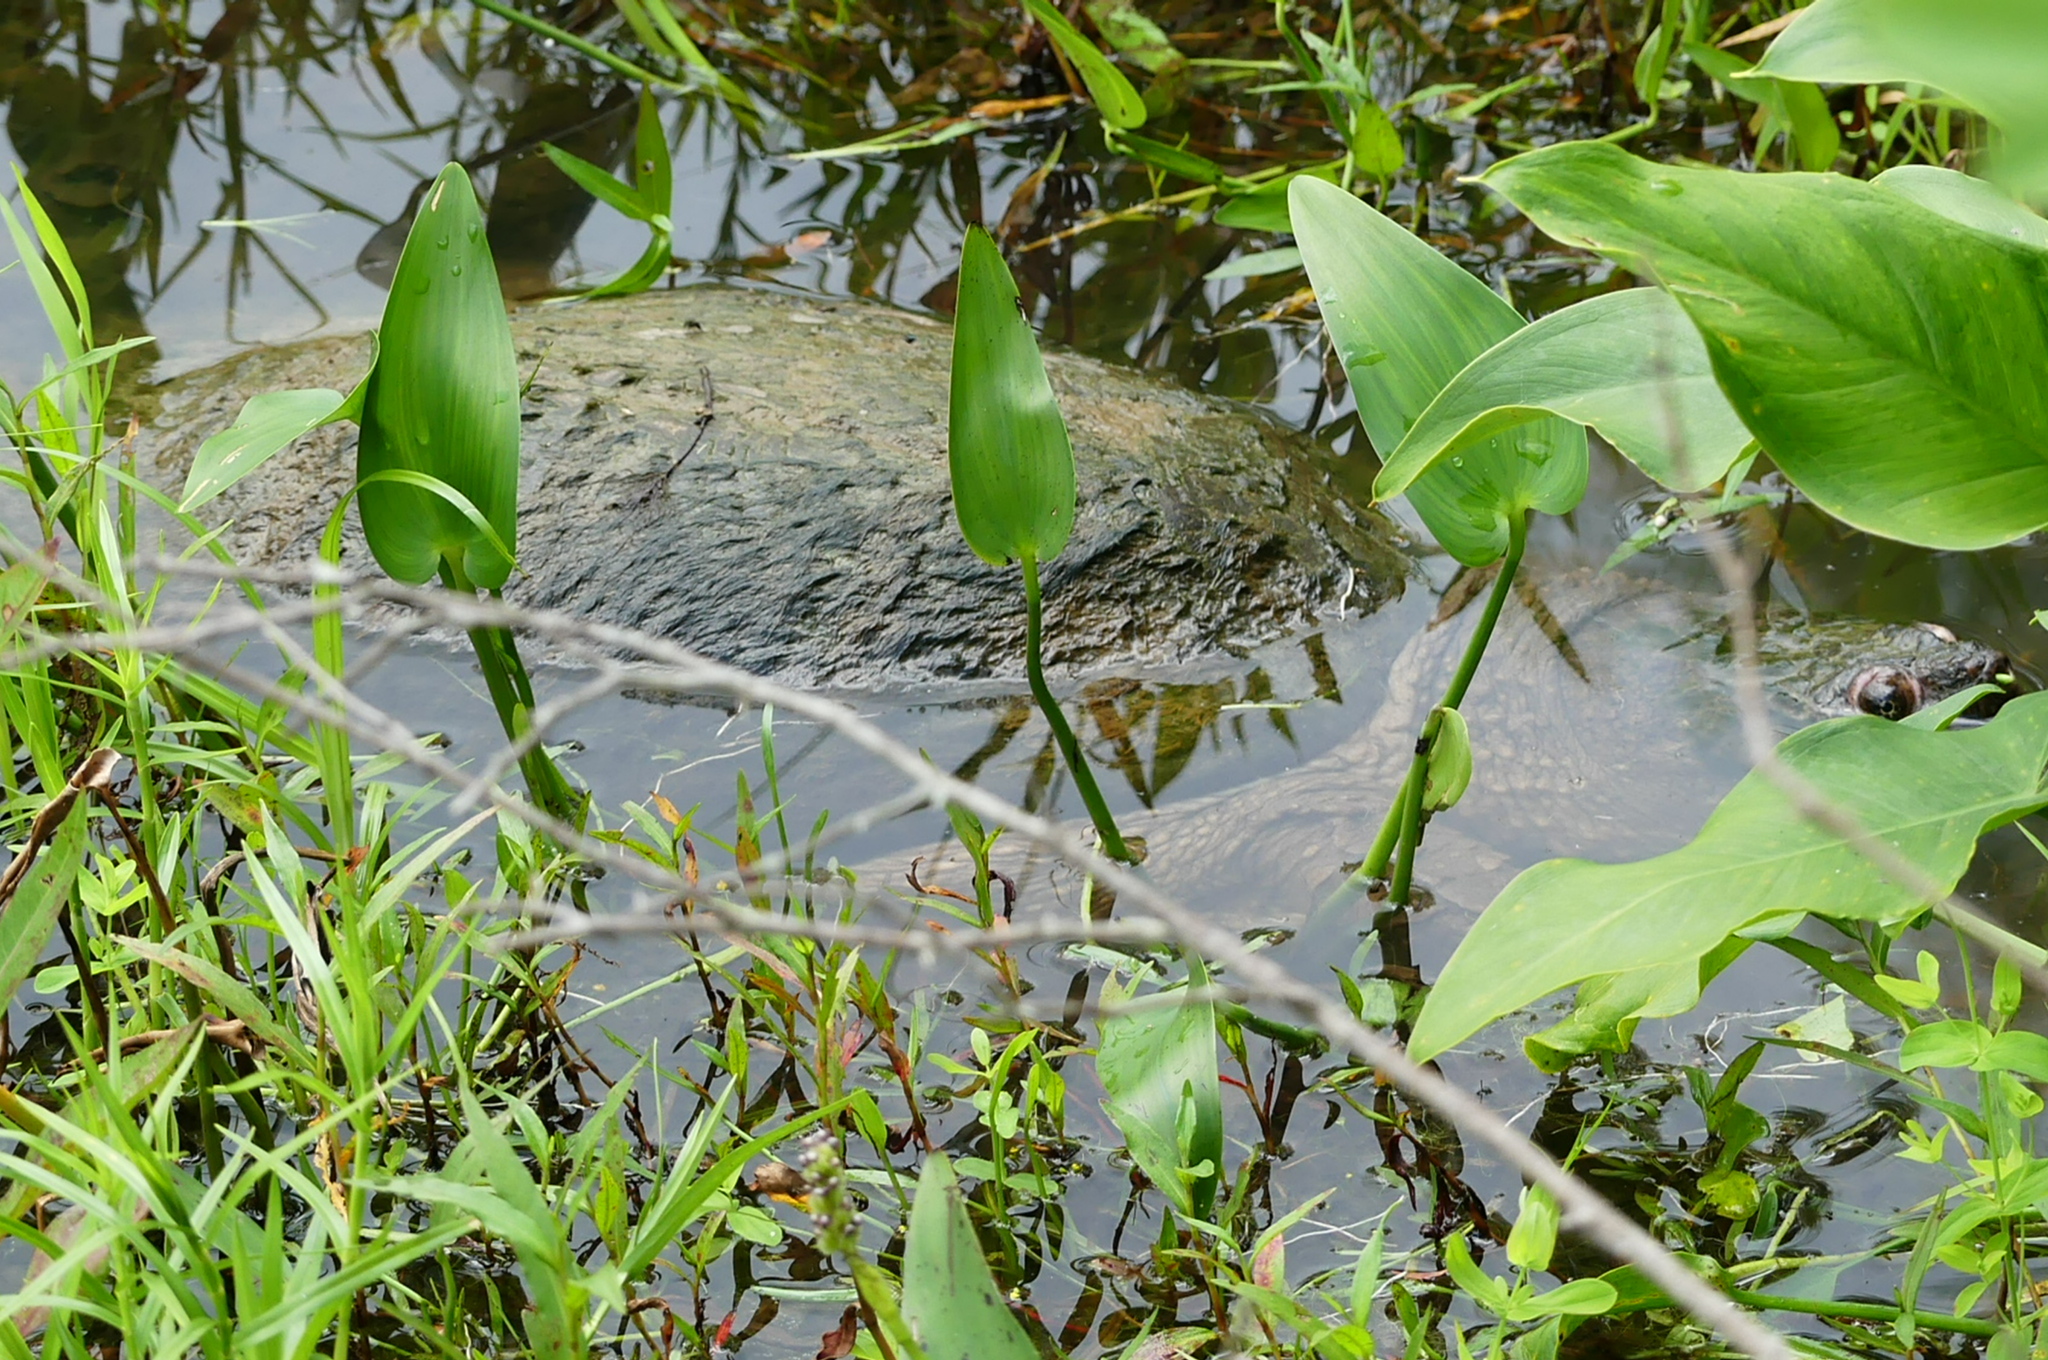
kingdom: Animalia
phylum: Chordata
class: Testudines
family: Chelydridae
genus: Chelydra
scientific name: Chelydra serpentina
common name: Common snapping turtle
